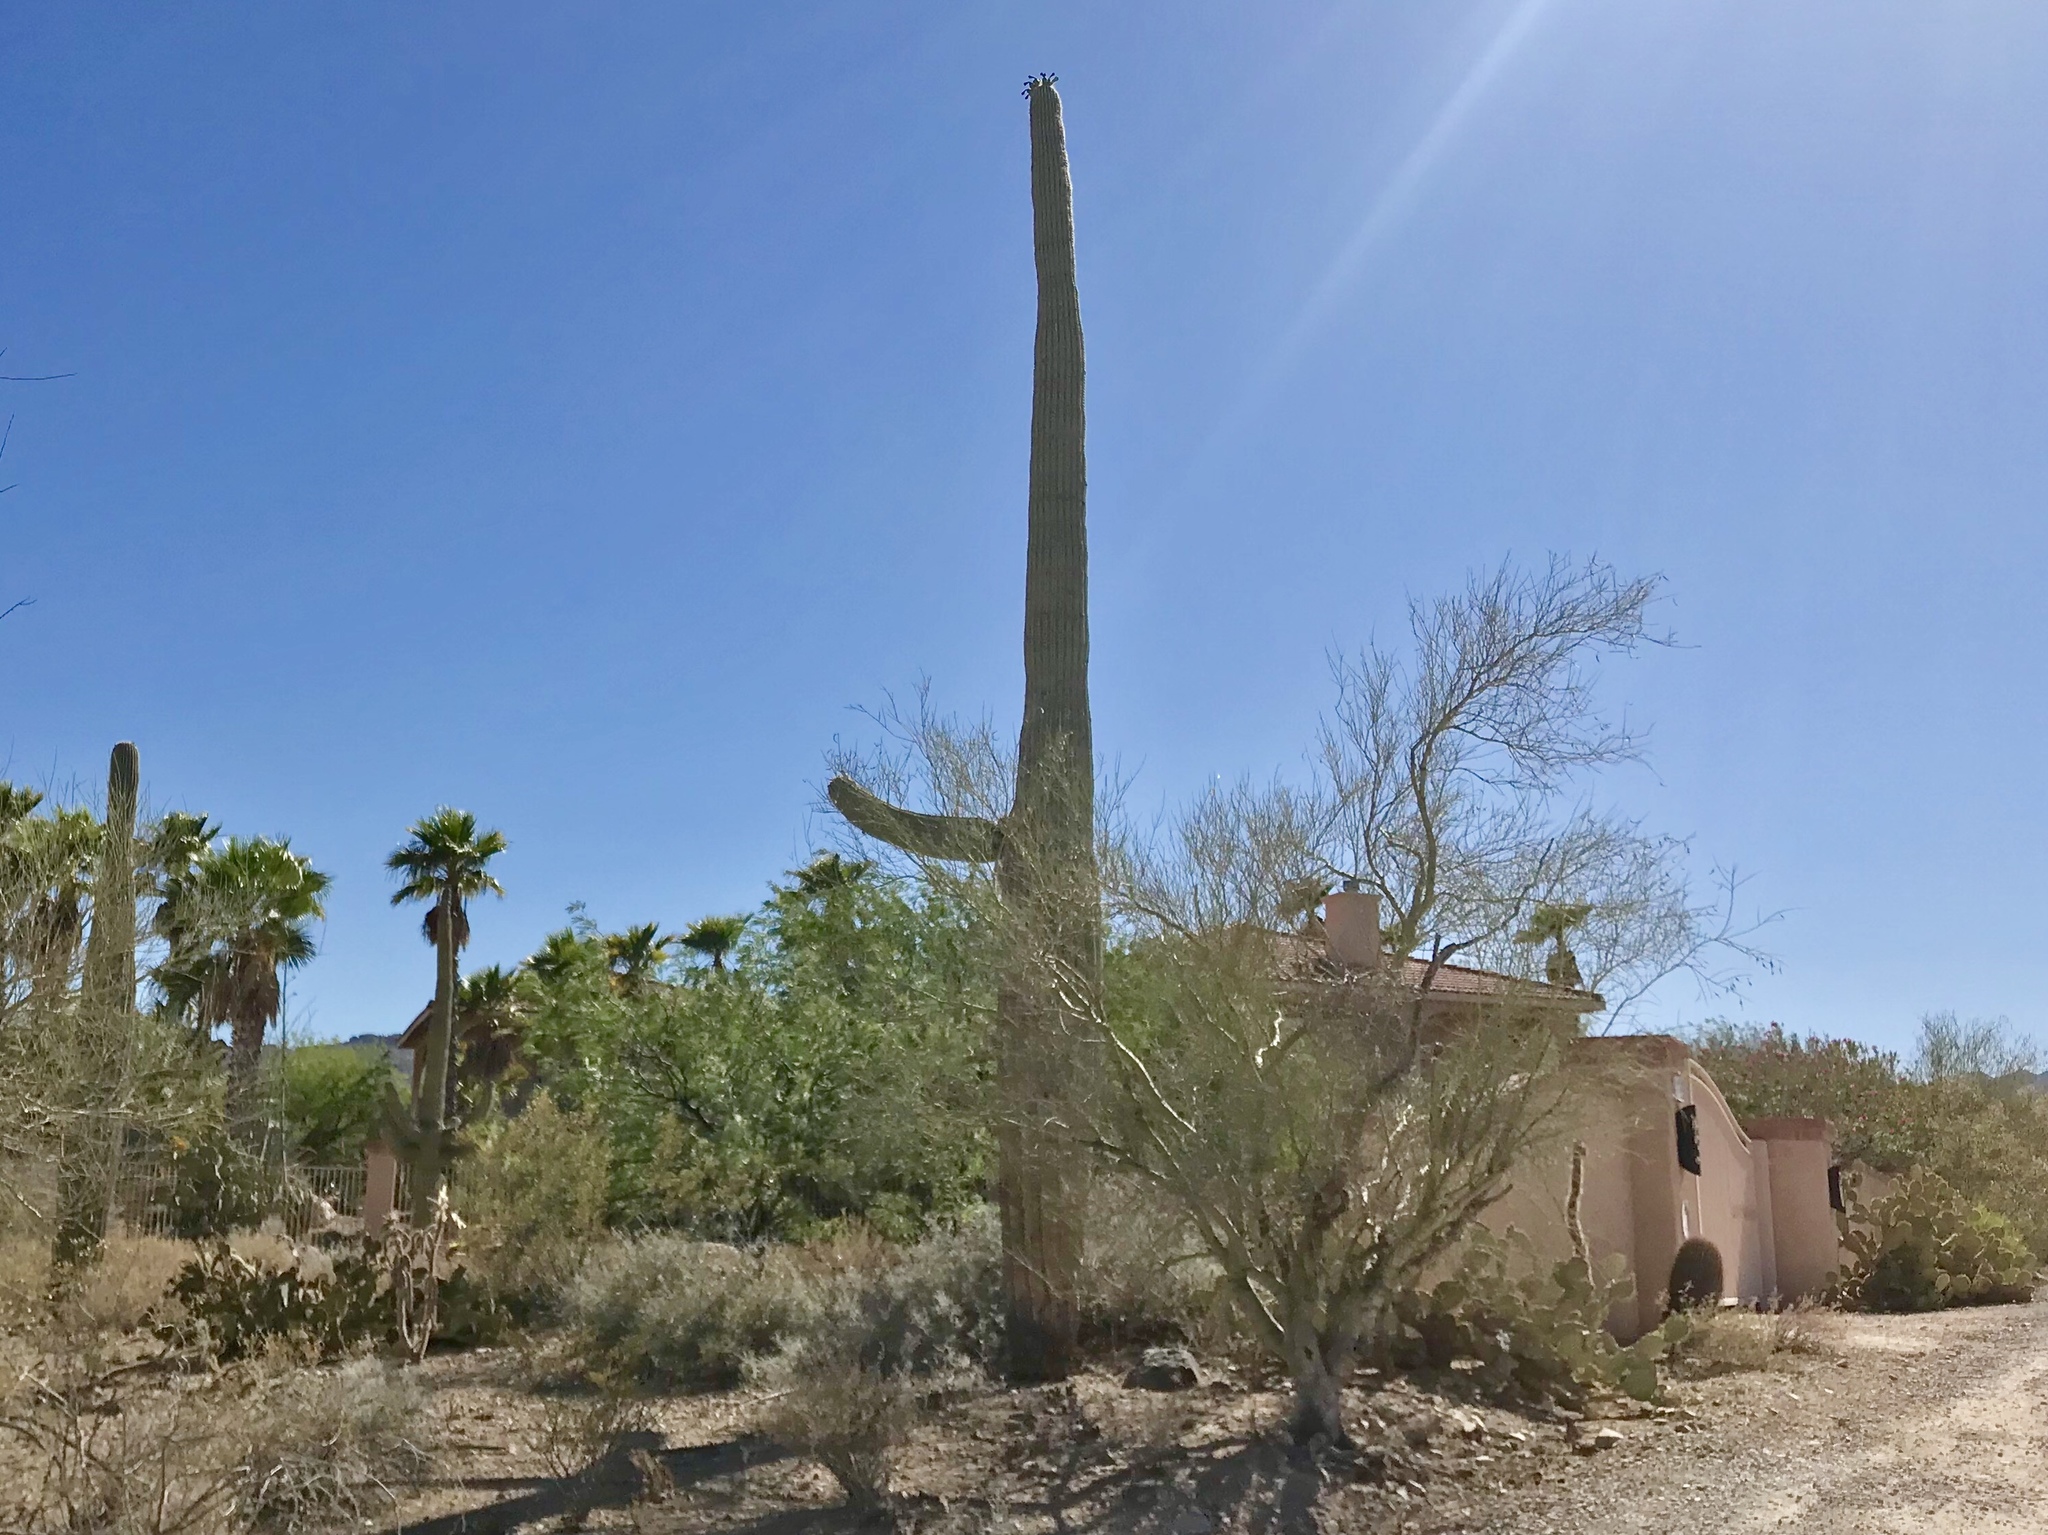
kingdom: Plantae
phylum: Tracheophyta
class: Magnoliopsida
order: Caryophyllales
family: Cactaceae
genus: Carnegiea
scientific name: Carnegiea gigantea
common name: Saguaro
